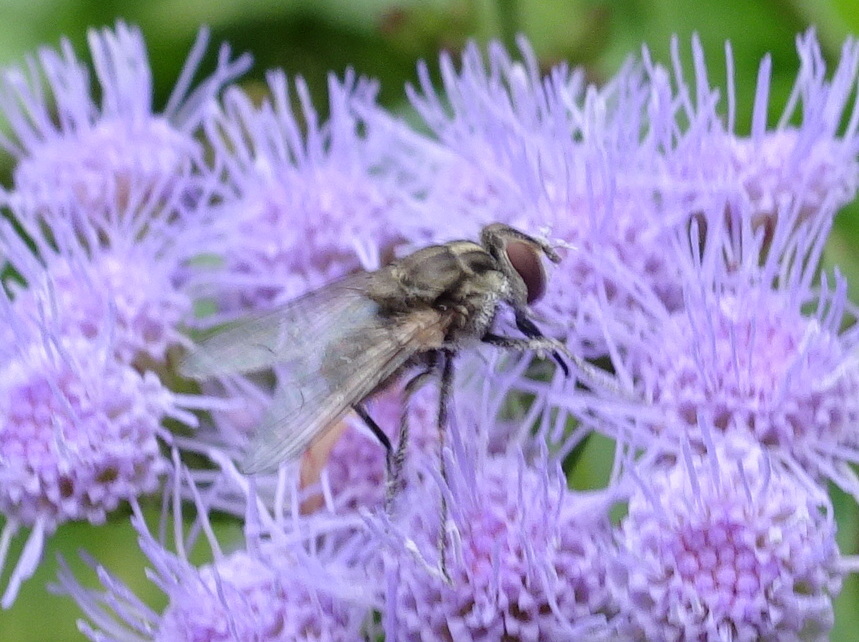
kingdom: Animalia
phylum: Arthropoda
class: Insecta
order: Diptera
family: Muscidae
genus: Stomoxys
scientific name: Stomoxys calcitrans
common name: Stable fly
